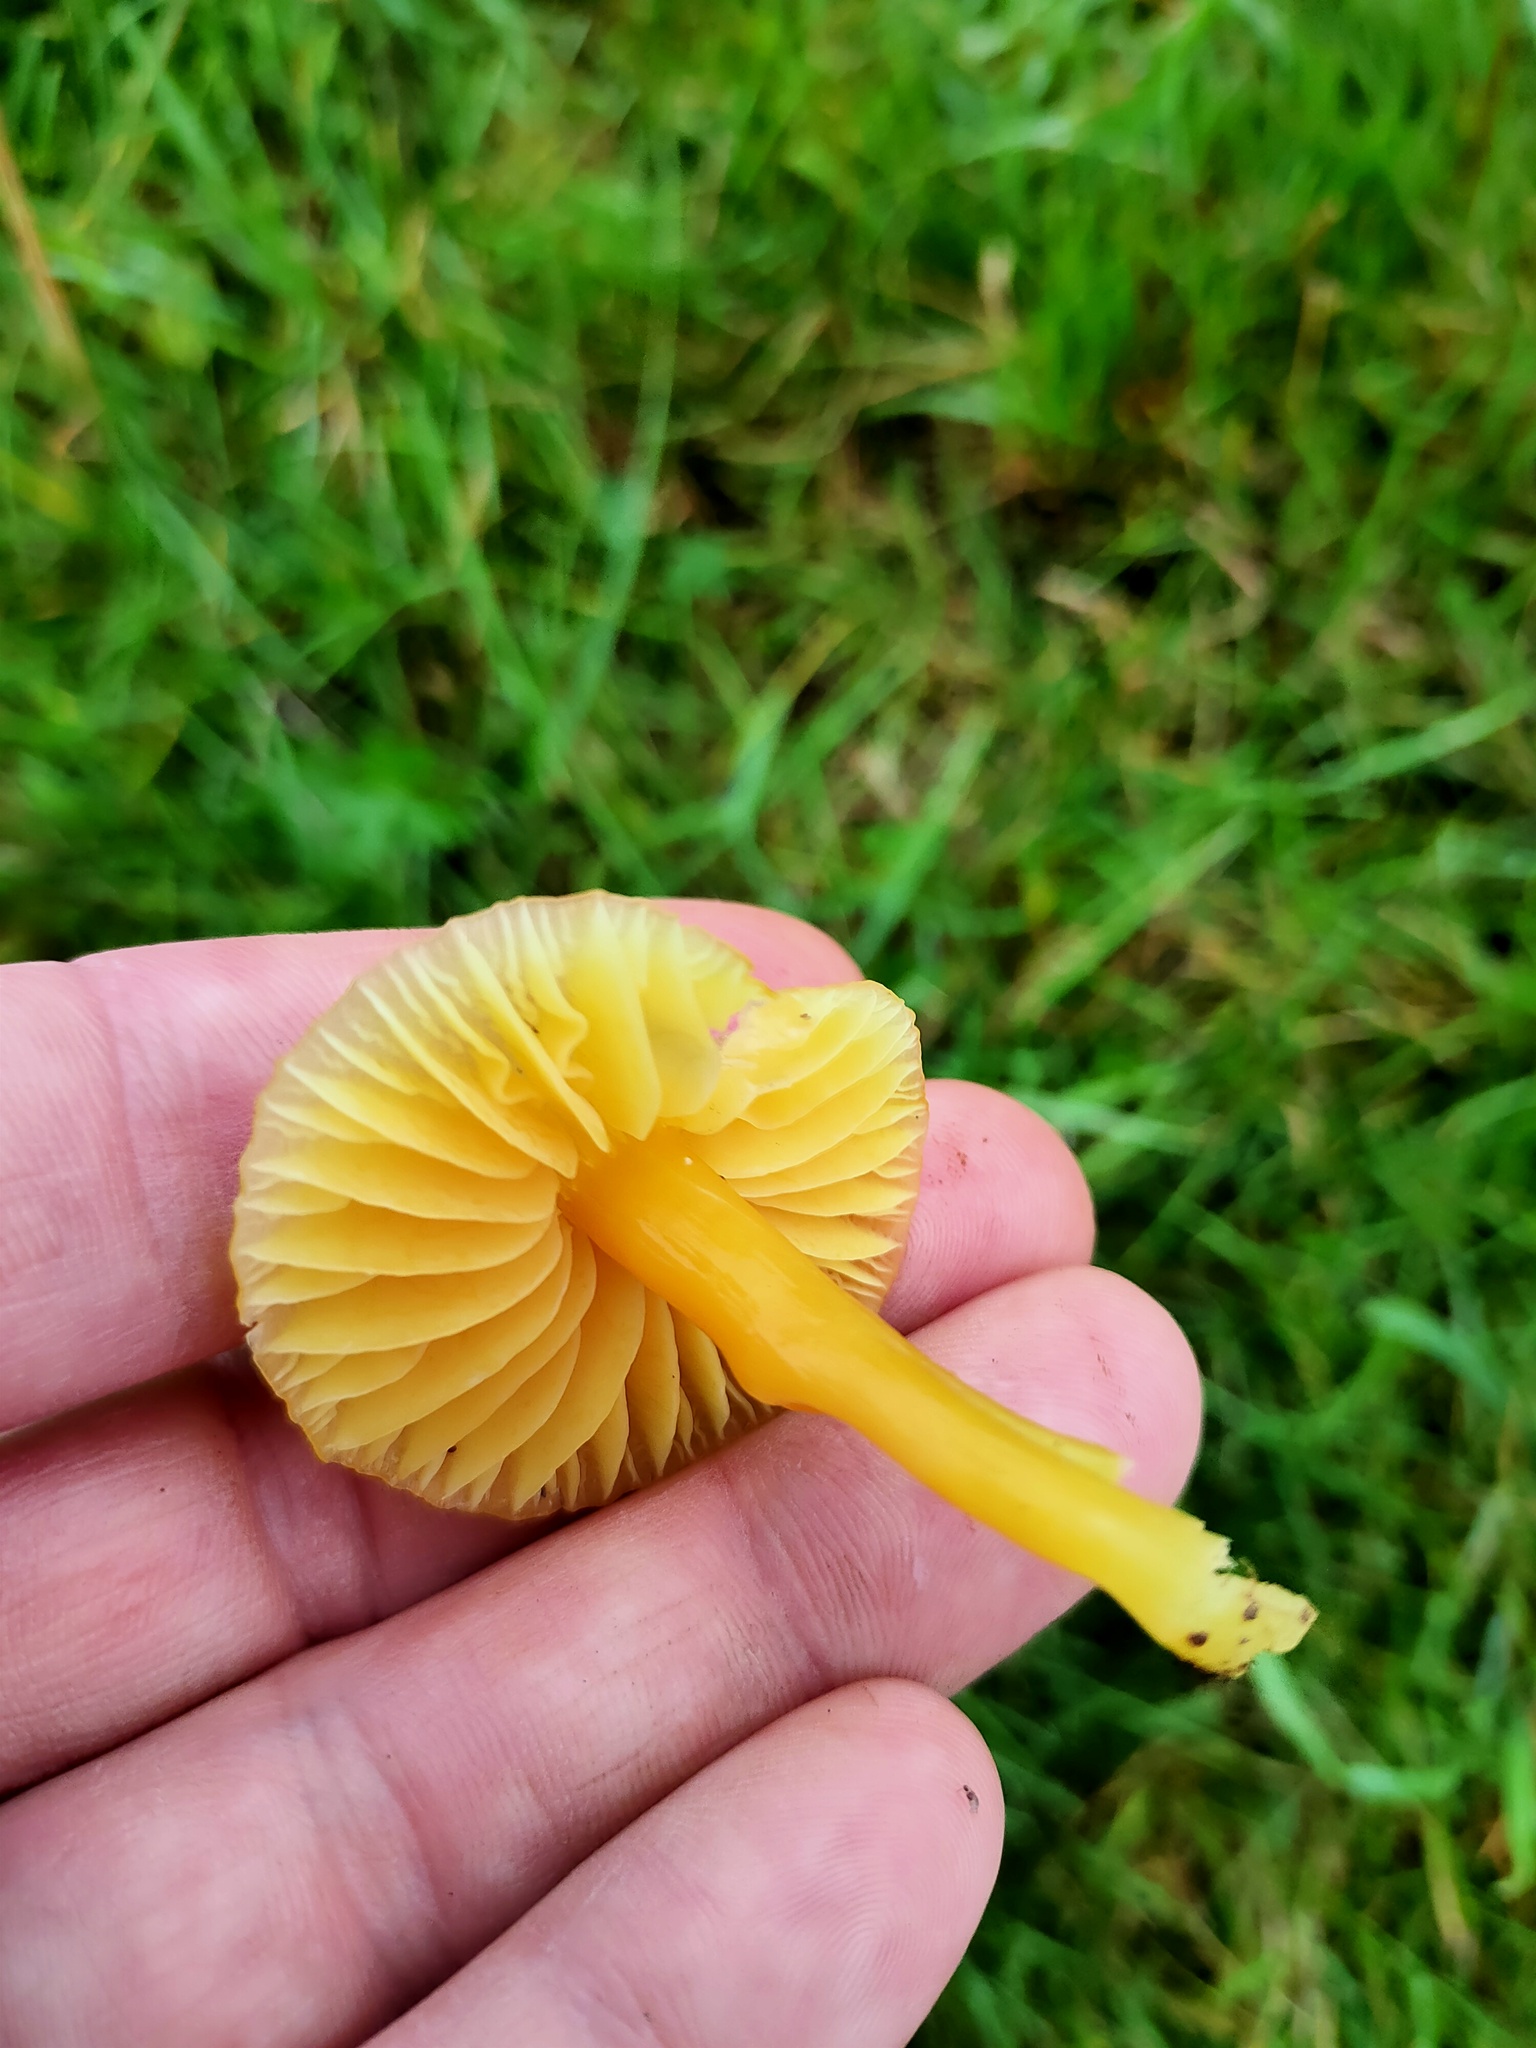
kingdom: Fungi
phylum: Basidiomycota
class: Agaricomycetes
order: Agaricales
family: Hygrophoraceae
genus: Hygrocybe
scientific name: Hygrocybe chlorophana
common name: Golden waxcap
